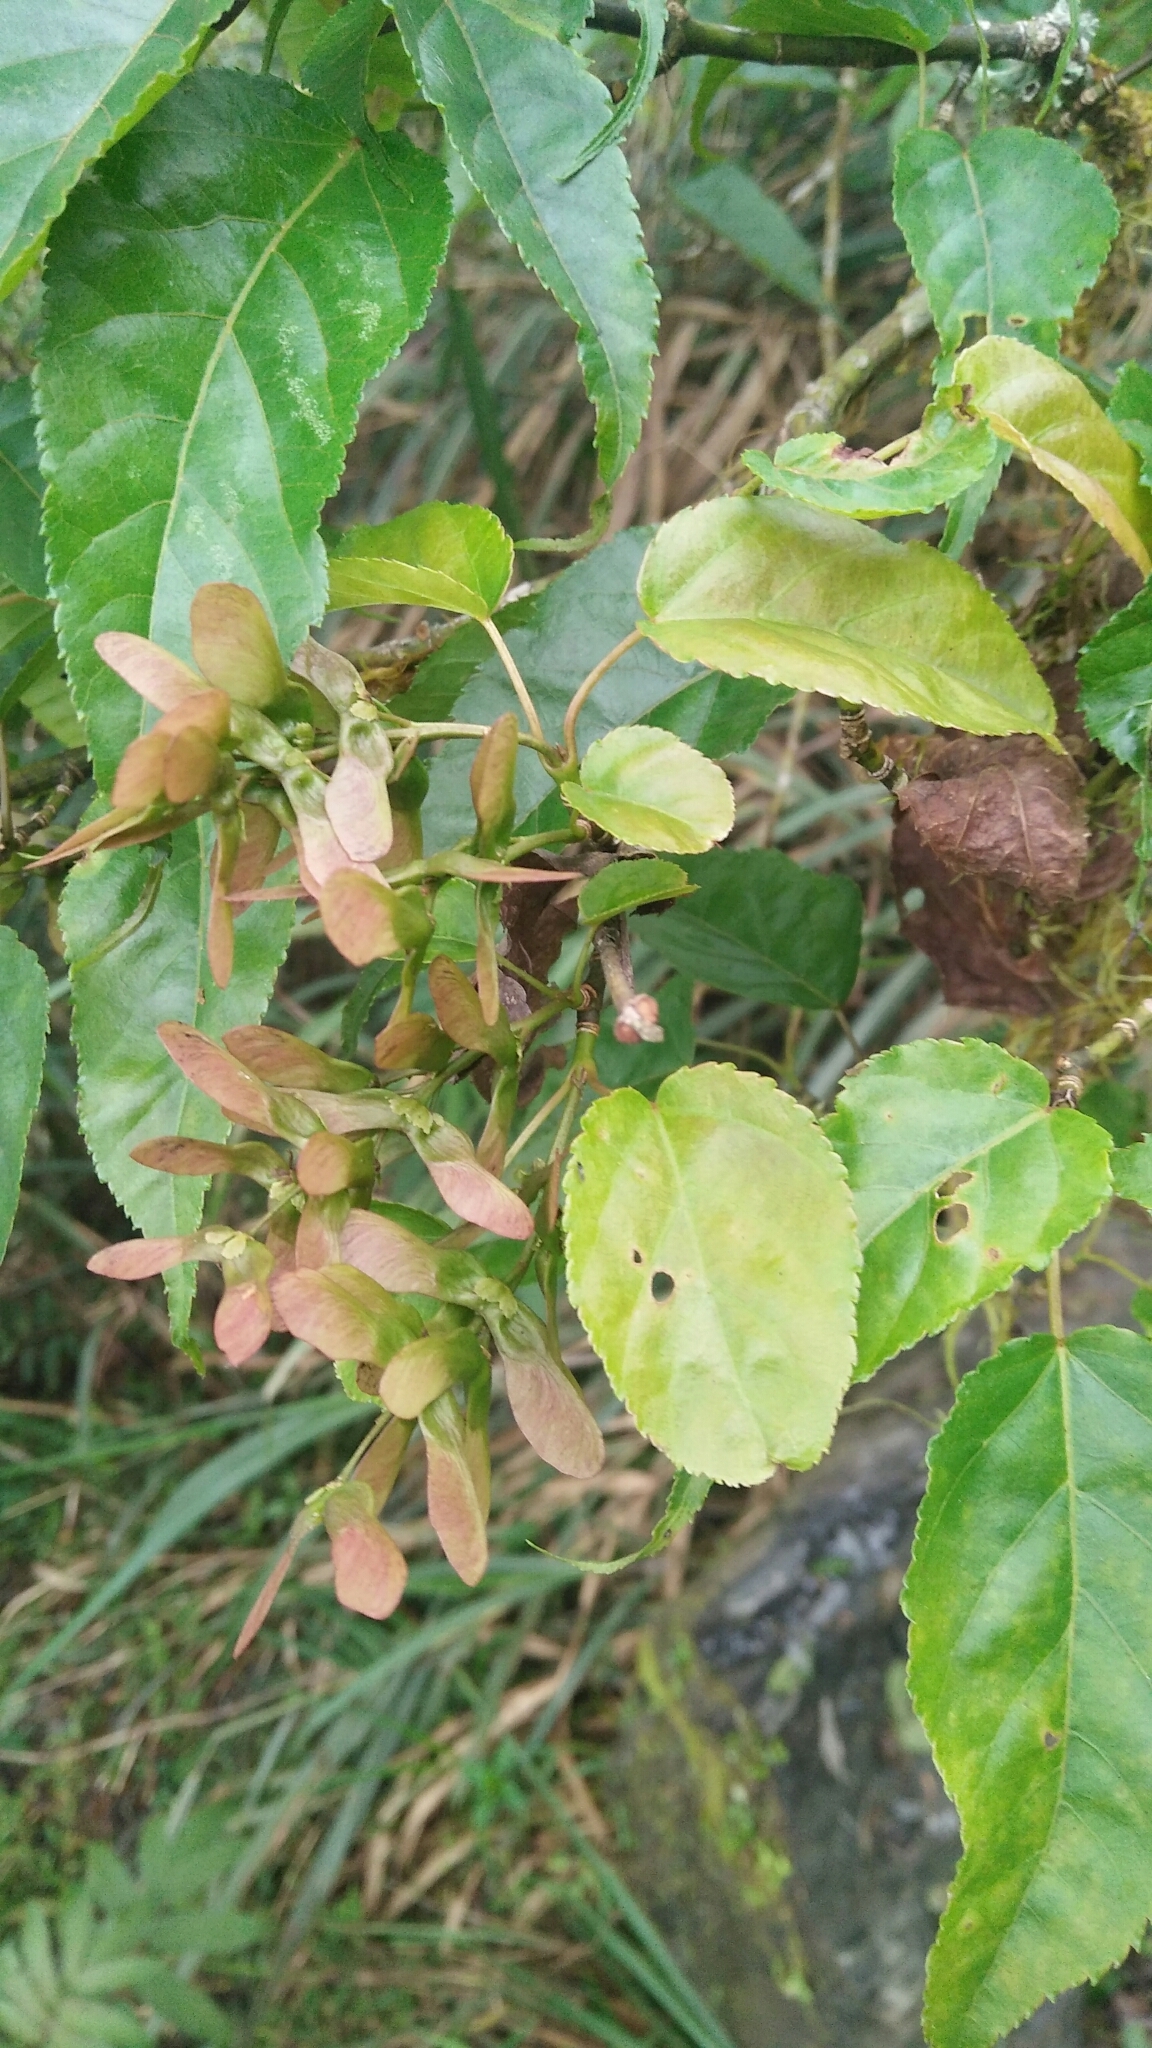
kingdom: Plantae
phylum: Tracheophyta
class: Magnoliopsida
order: Sapindales
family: Sapindaceae
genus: Acer
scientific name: Acer caudatifolium
